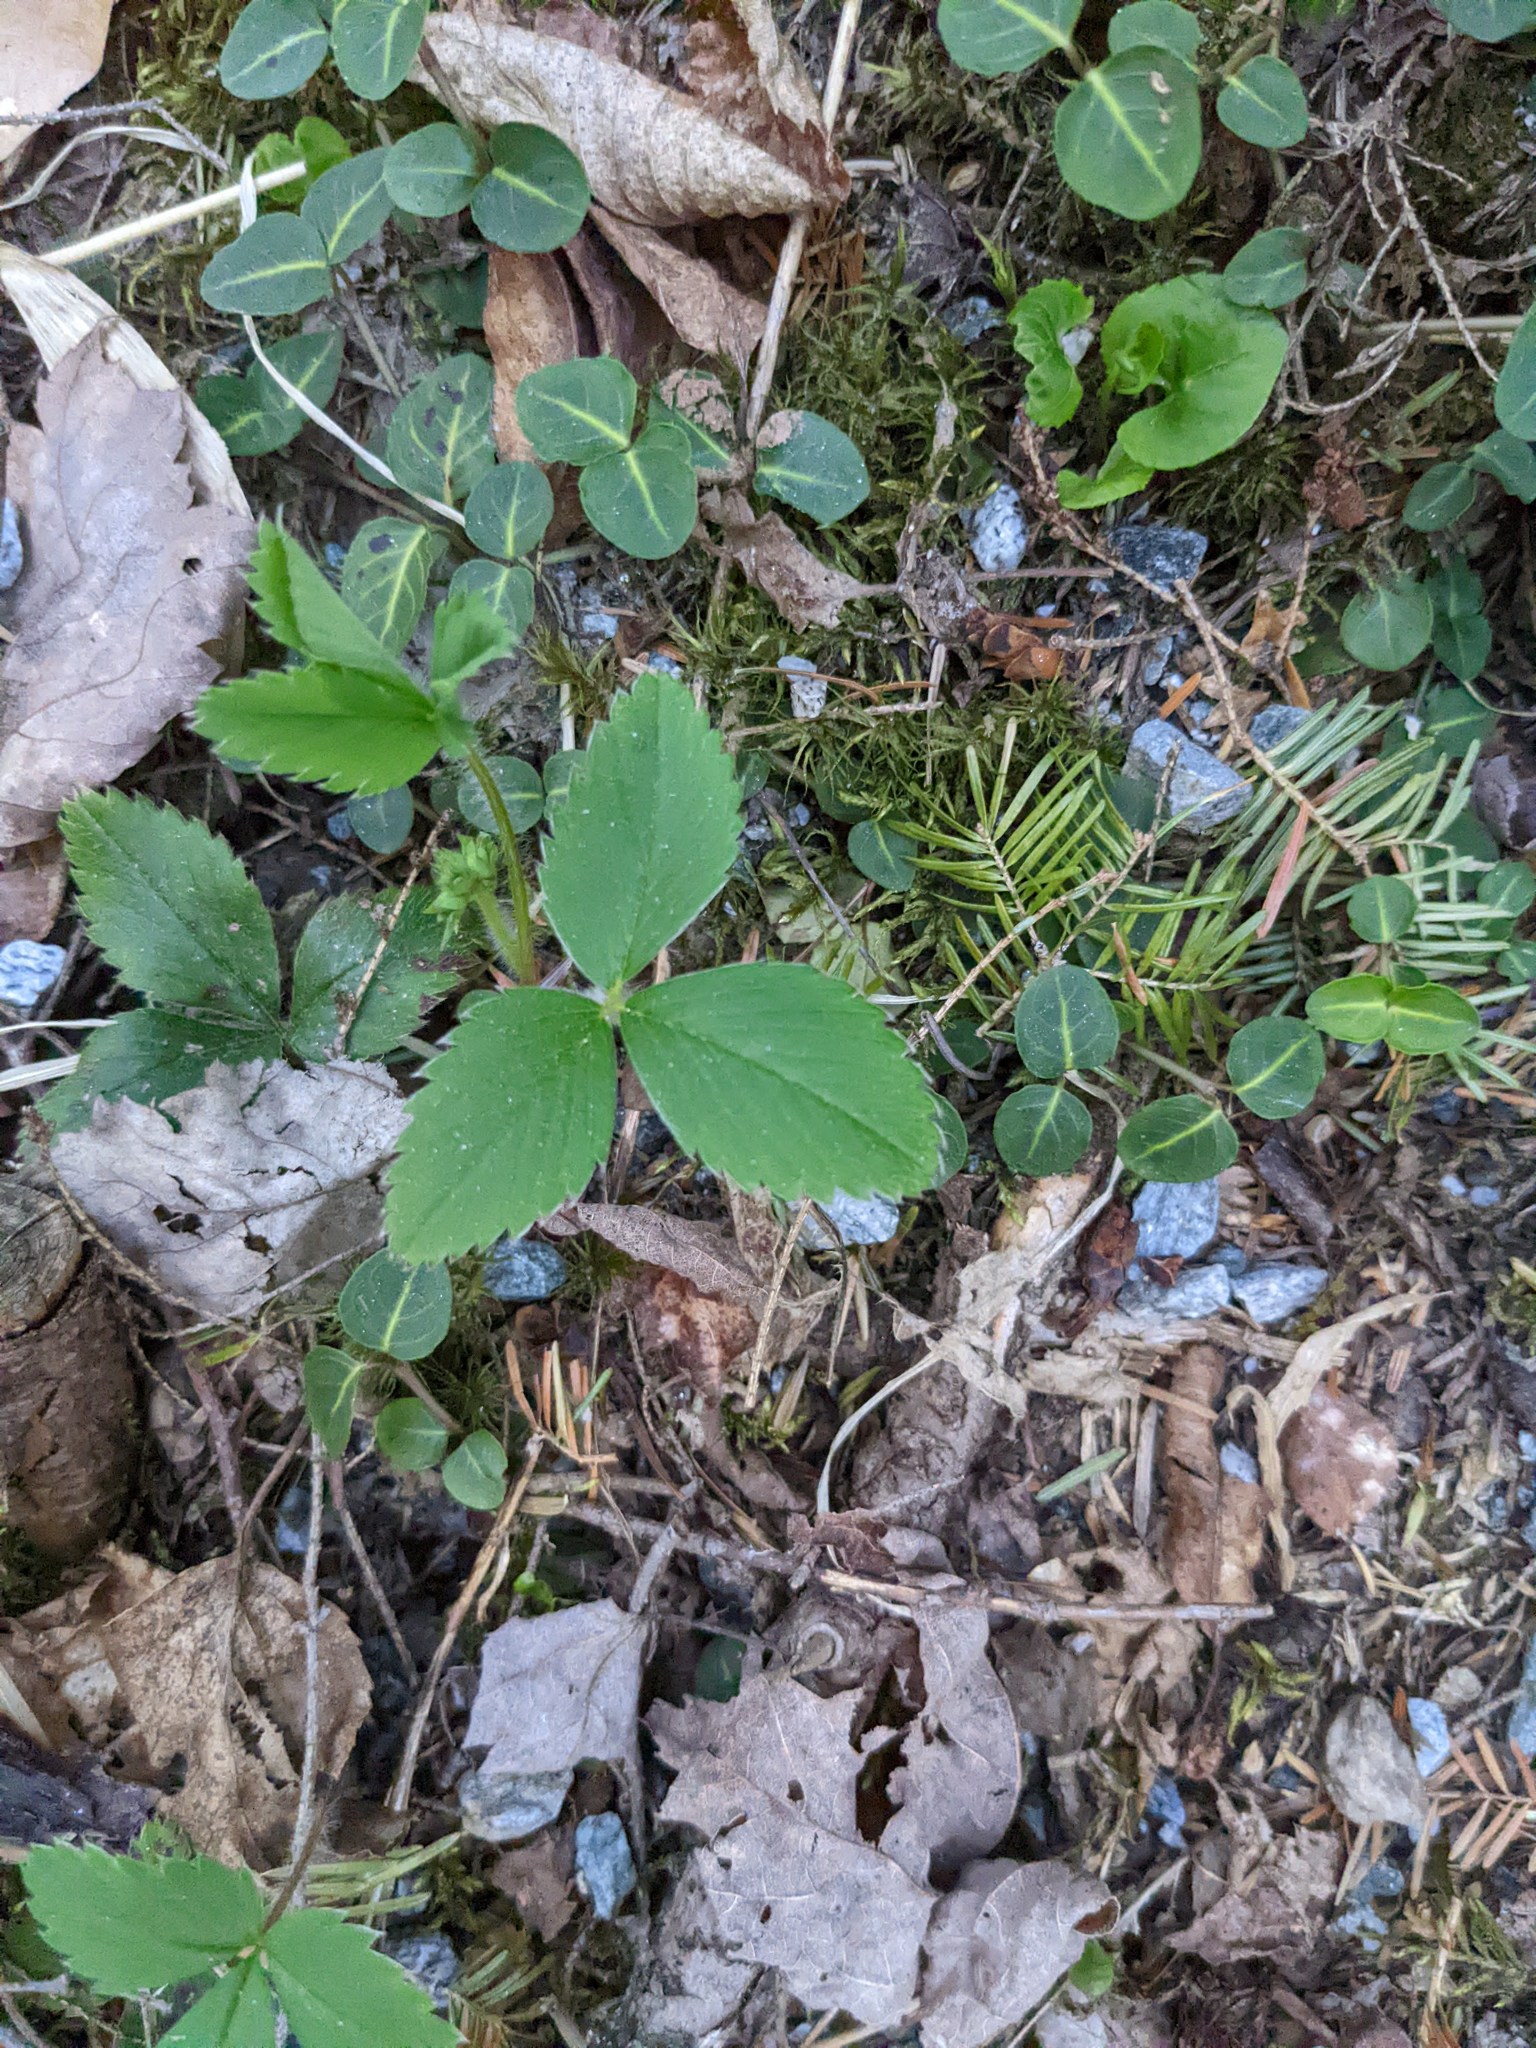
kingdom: Plantae
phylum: Tracheophyta
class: Magnoliopsida
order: Gentianales
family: Rubiaceae
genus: Mitchella
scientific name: Mitchella repens
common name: Partridge-berry
